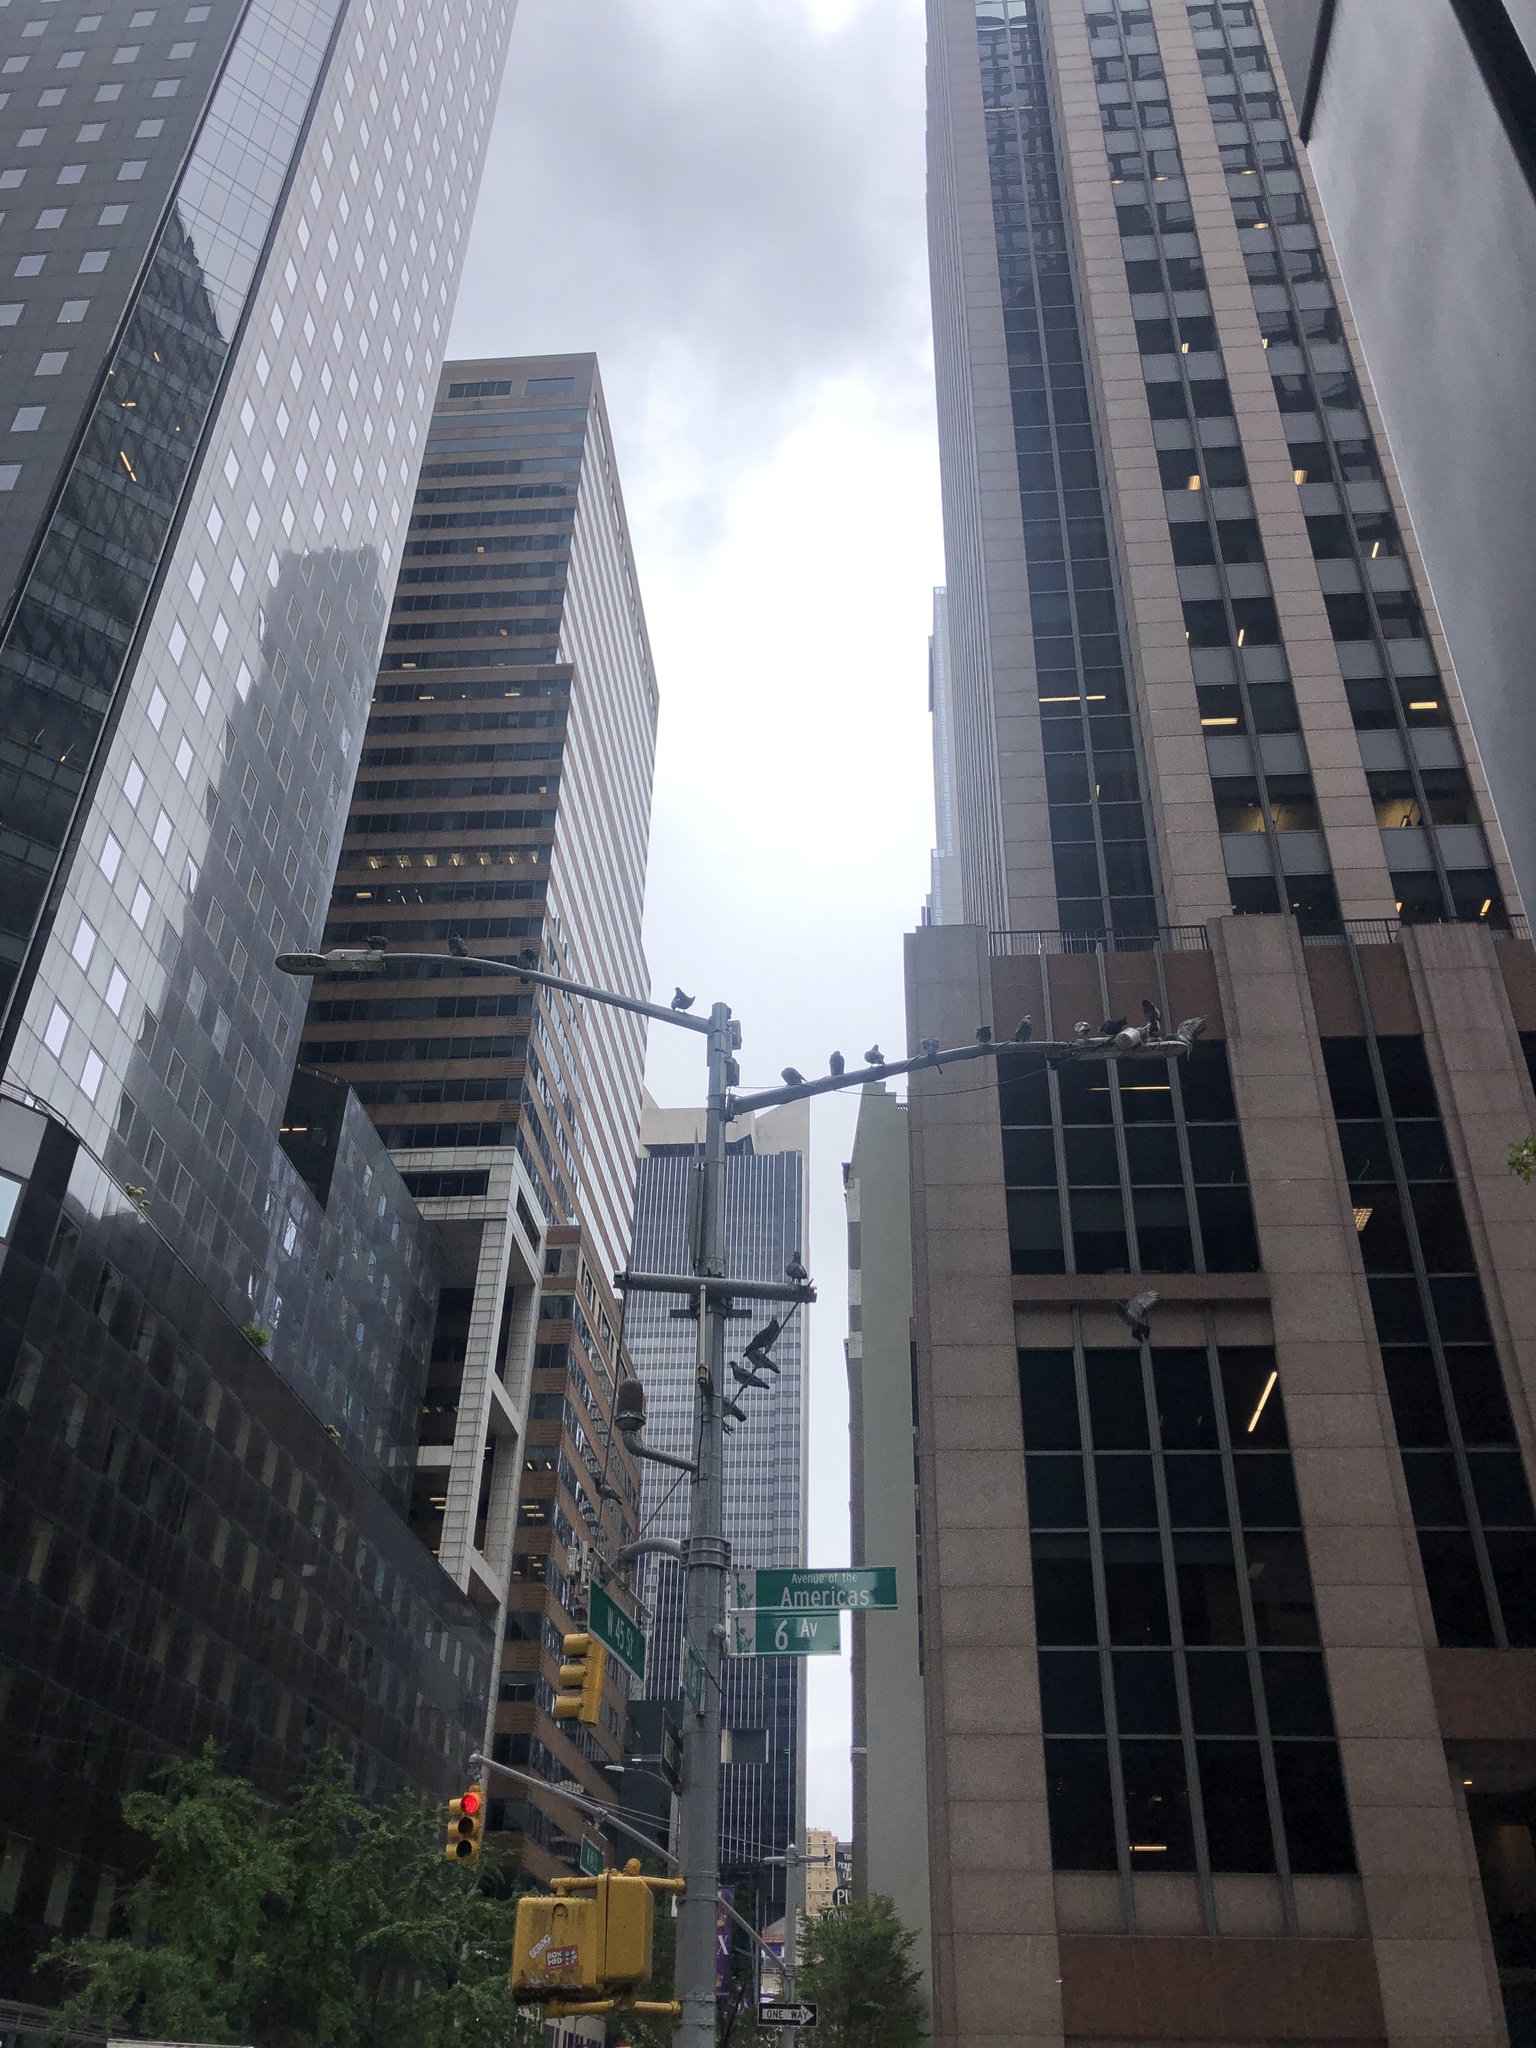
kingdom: Animalia
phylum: Chordata
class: Aves
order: Columbiformes
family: Columbidae
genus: Columba
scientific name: Columba livia
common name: Rock pigeon
